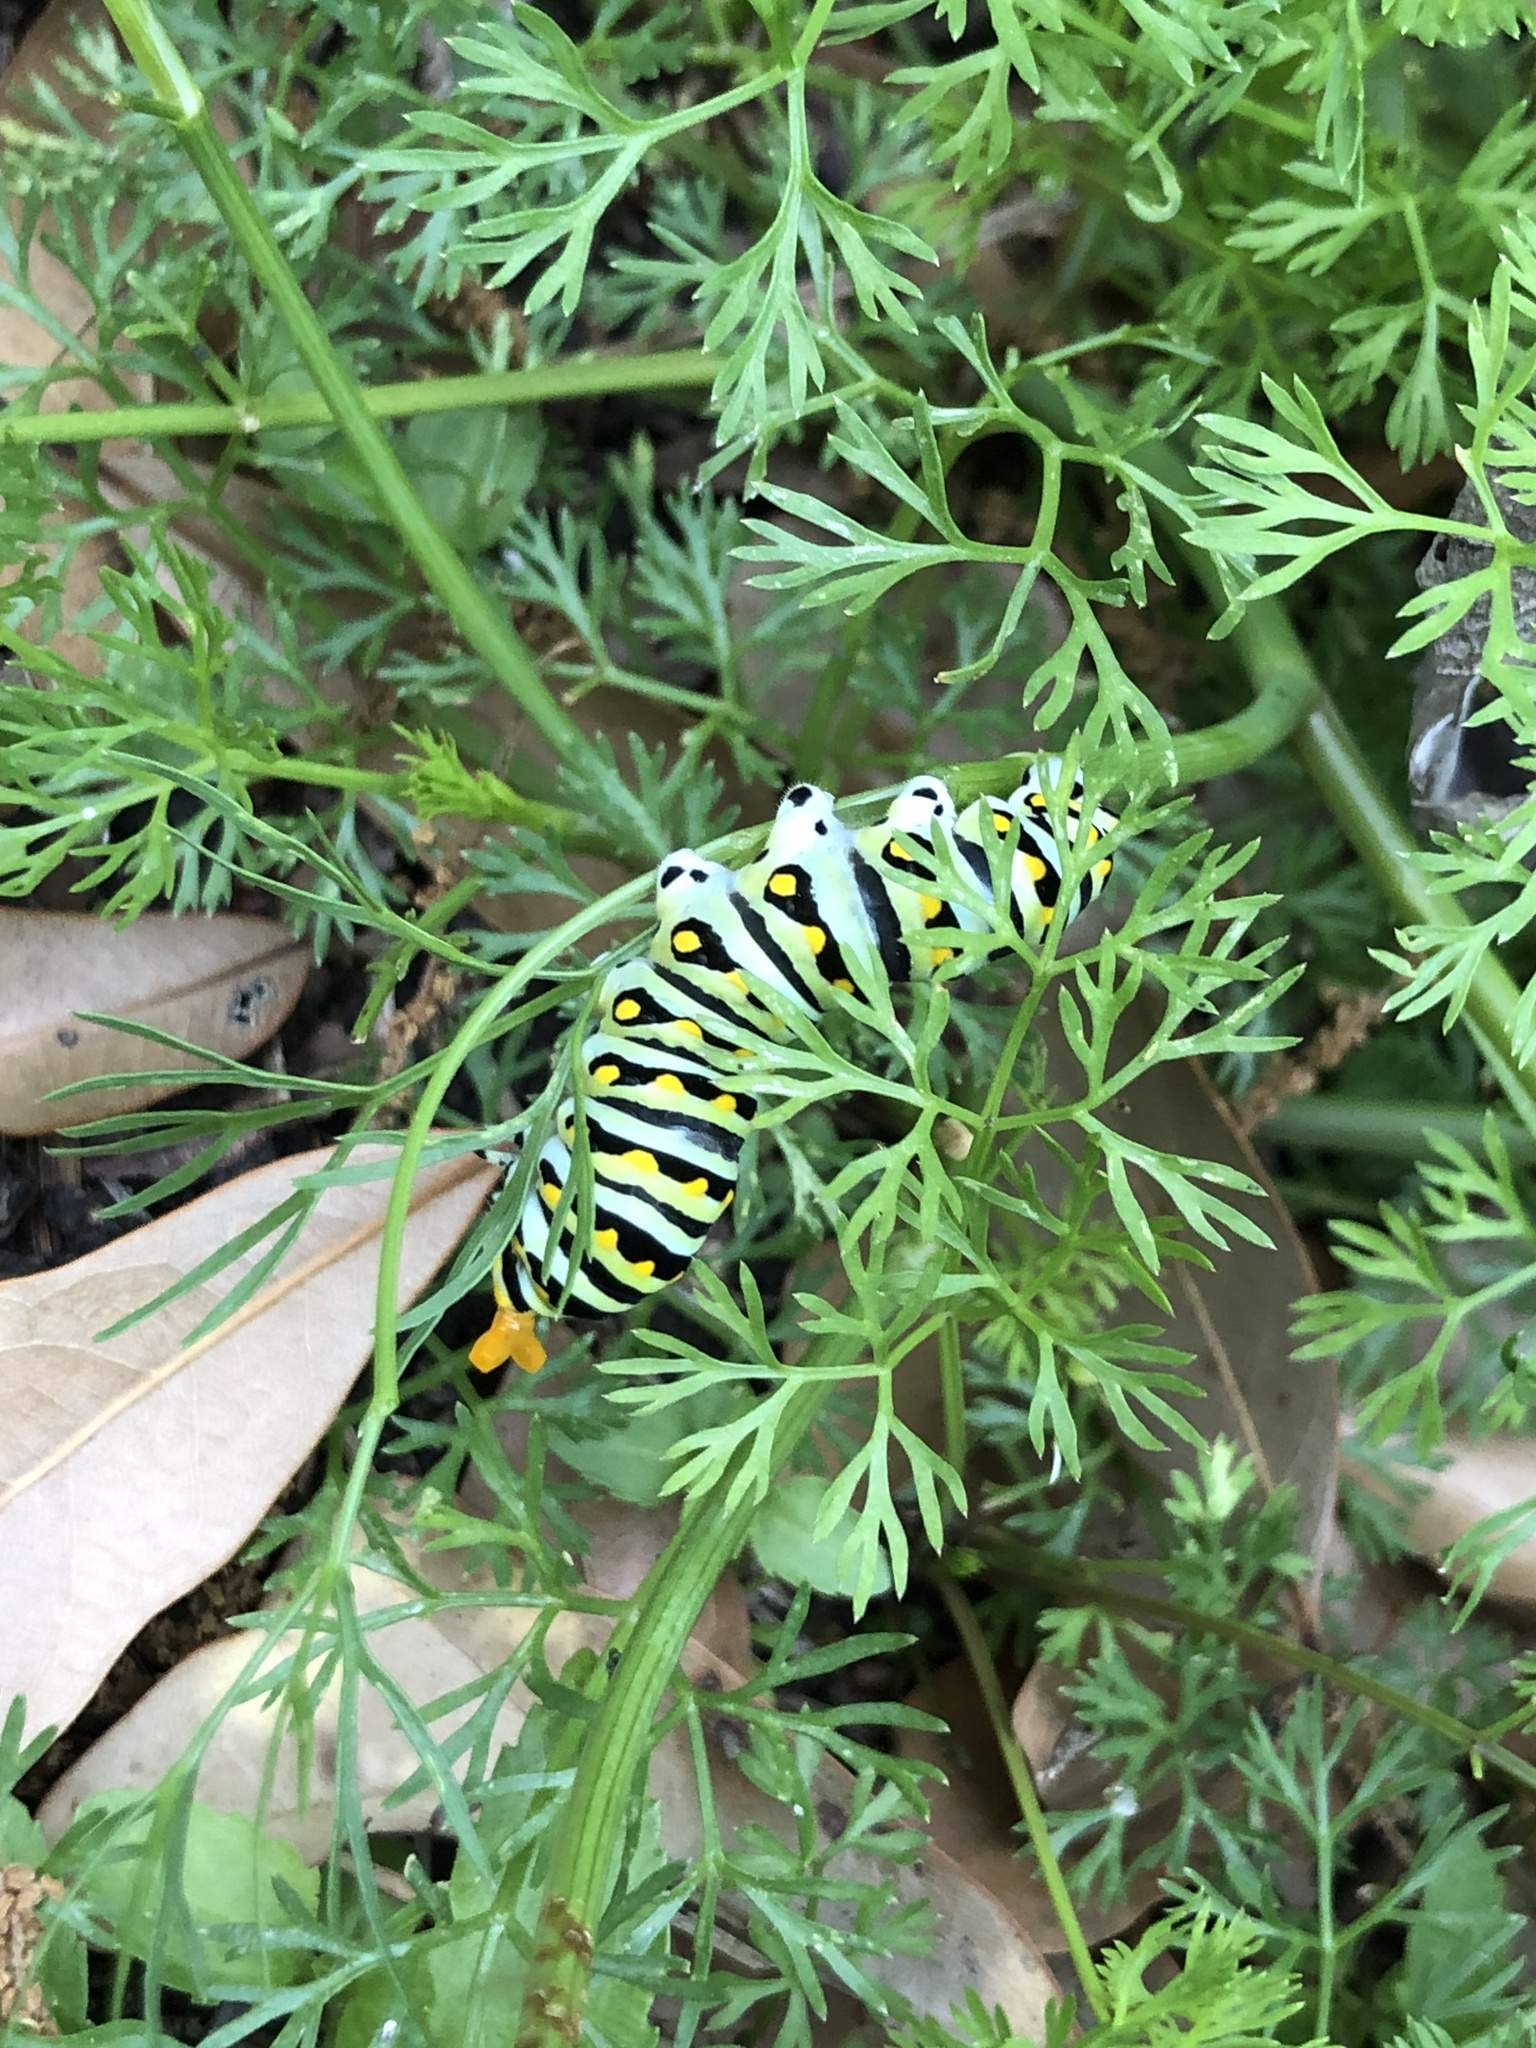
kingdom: Animalia
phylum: Arthropoda
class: Insecta
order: Lepidoptera
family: Papilionidae
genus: Papilio
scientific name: Papilio polyxenes
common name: Black swallowtail
